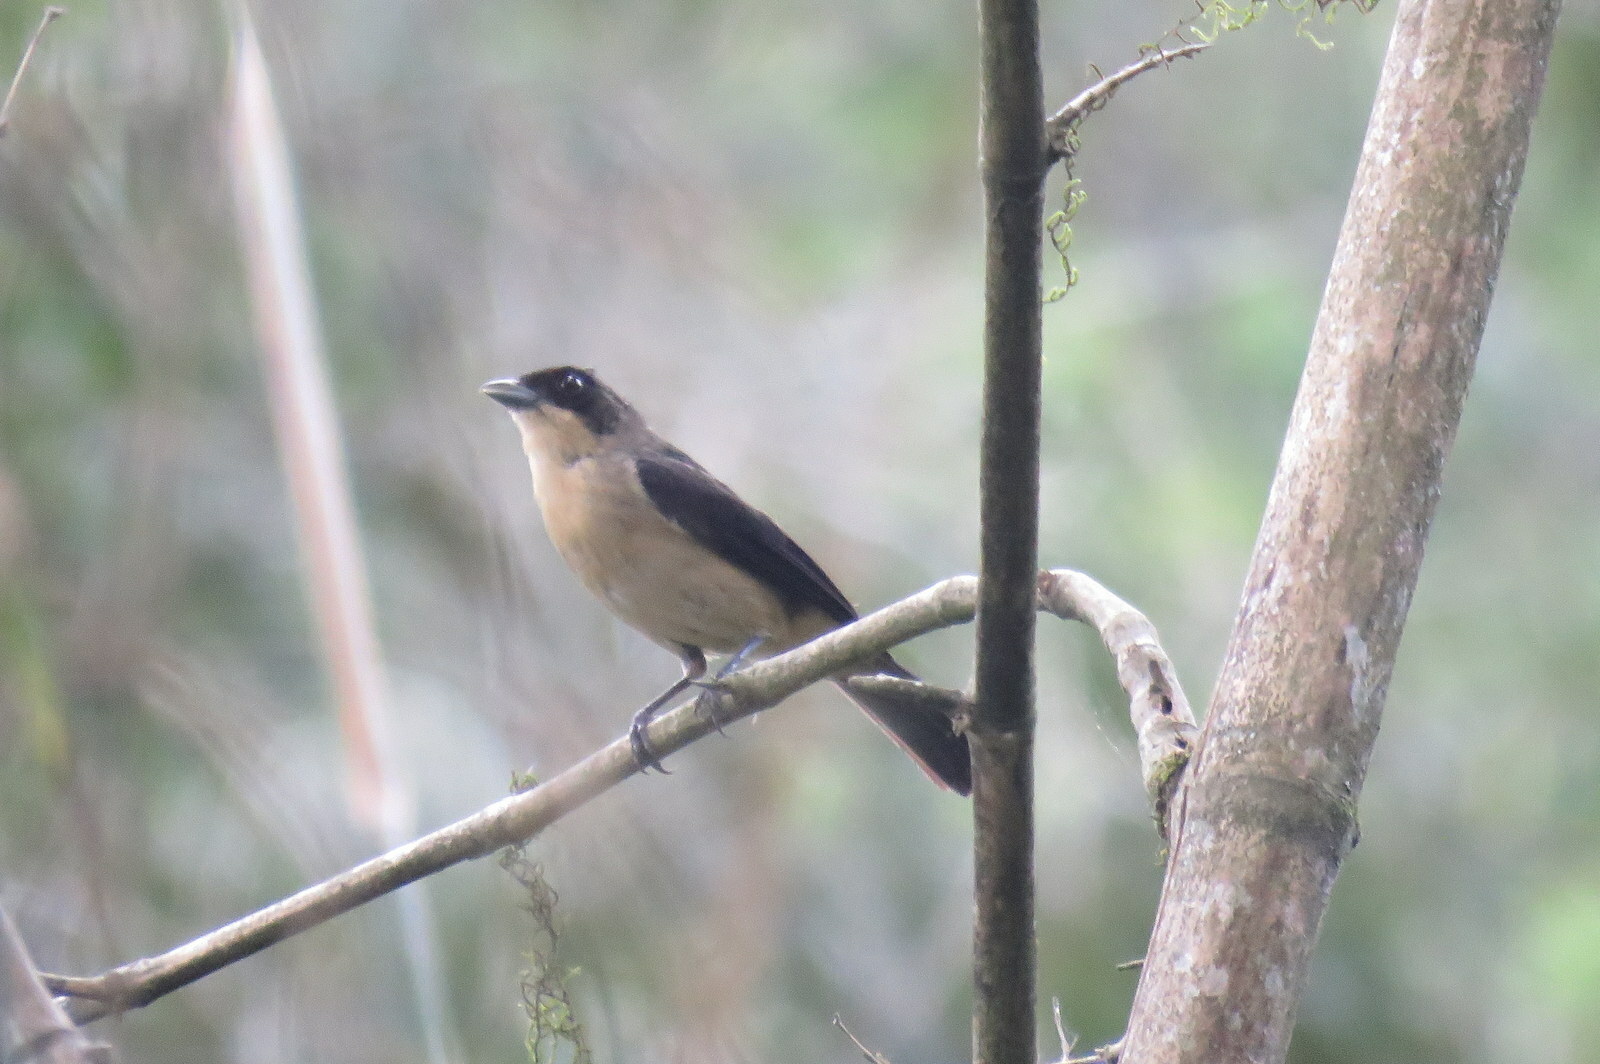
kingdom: Animalia
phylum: Chordata
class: Aves
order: Passeriformes
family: Thraupidae
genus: Trichothraupis
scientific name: Trichothraupis melanops
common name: Black-goggled tanager
